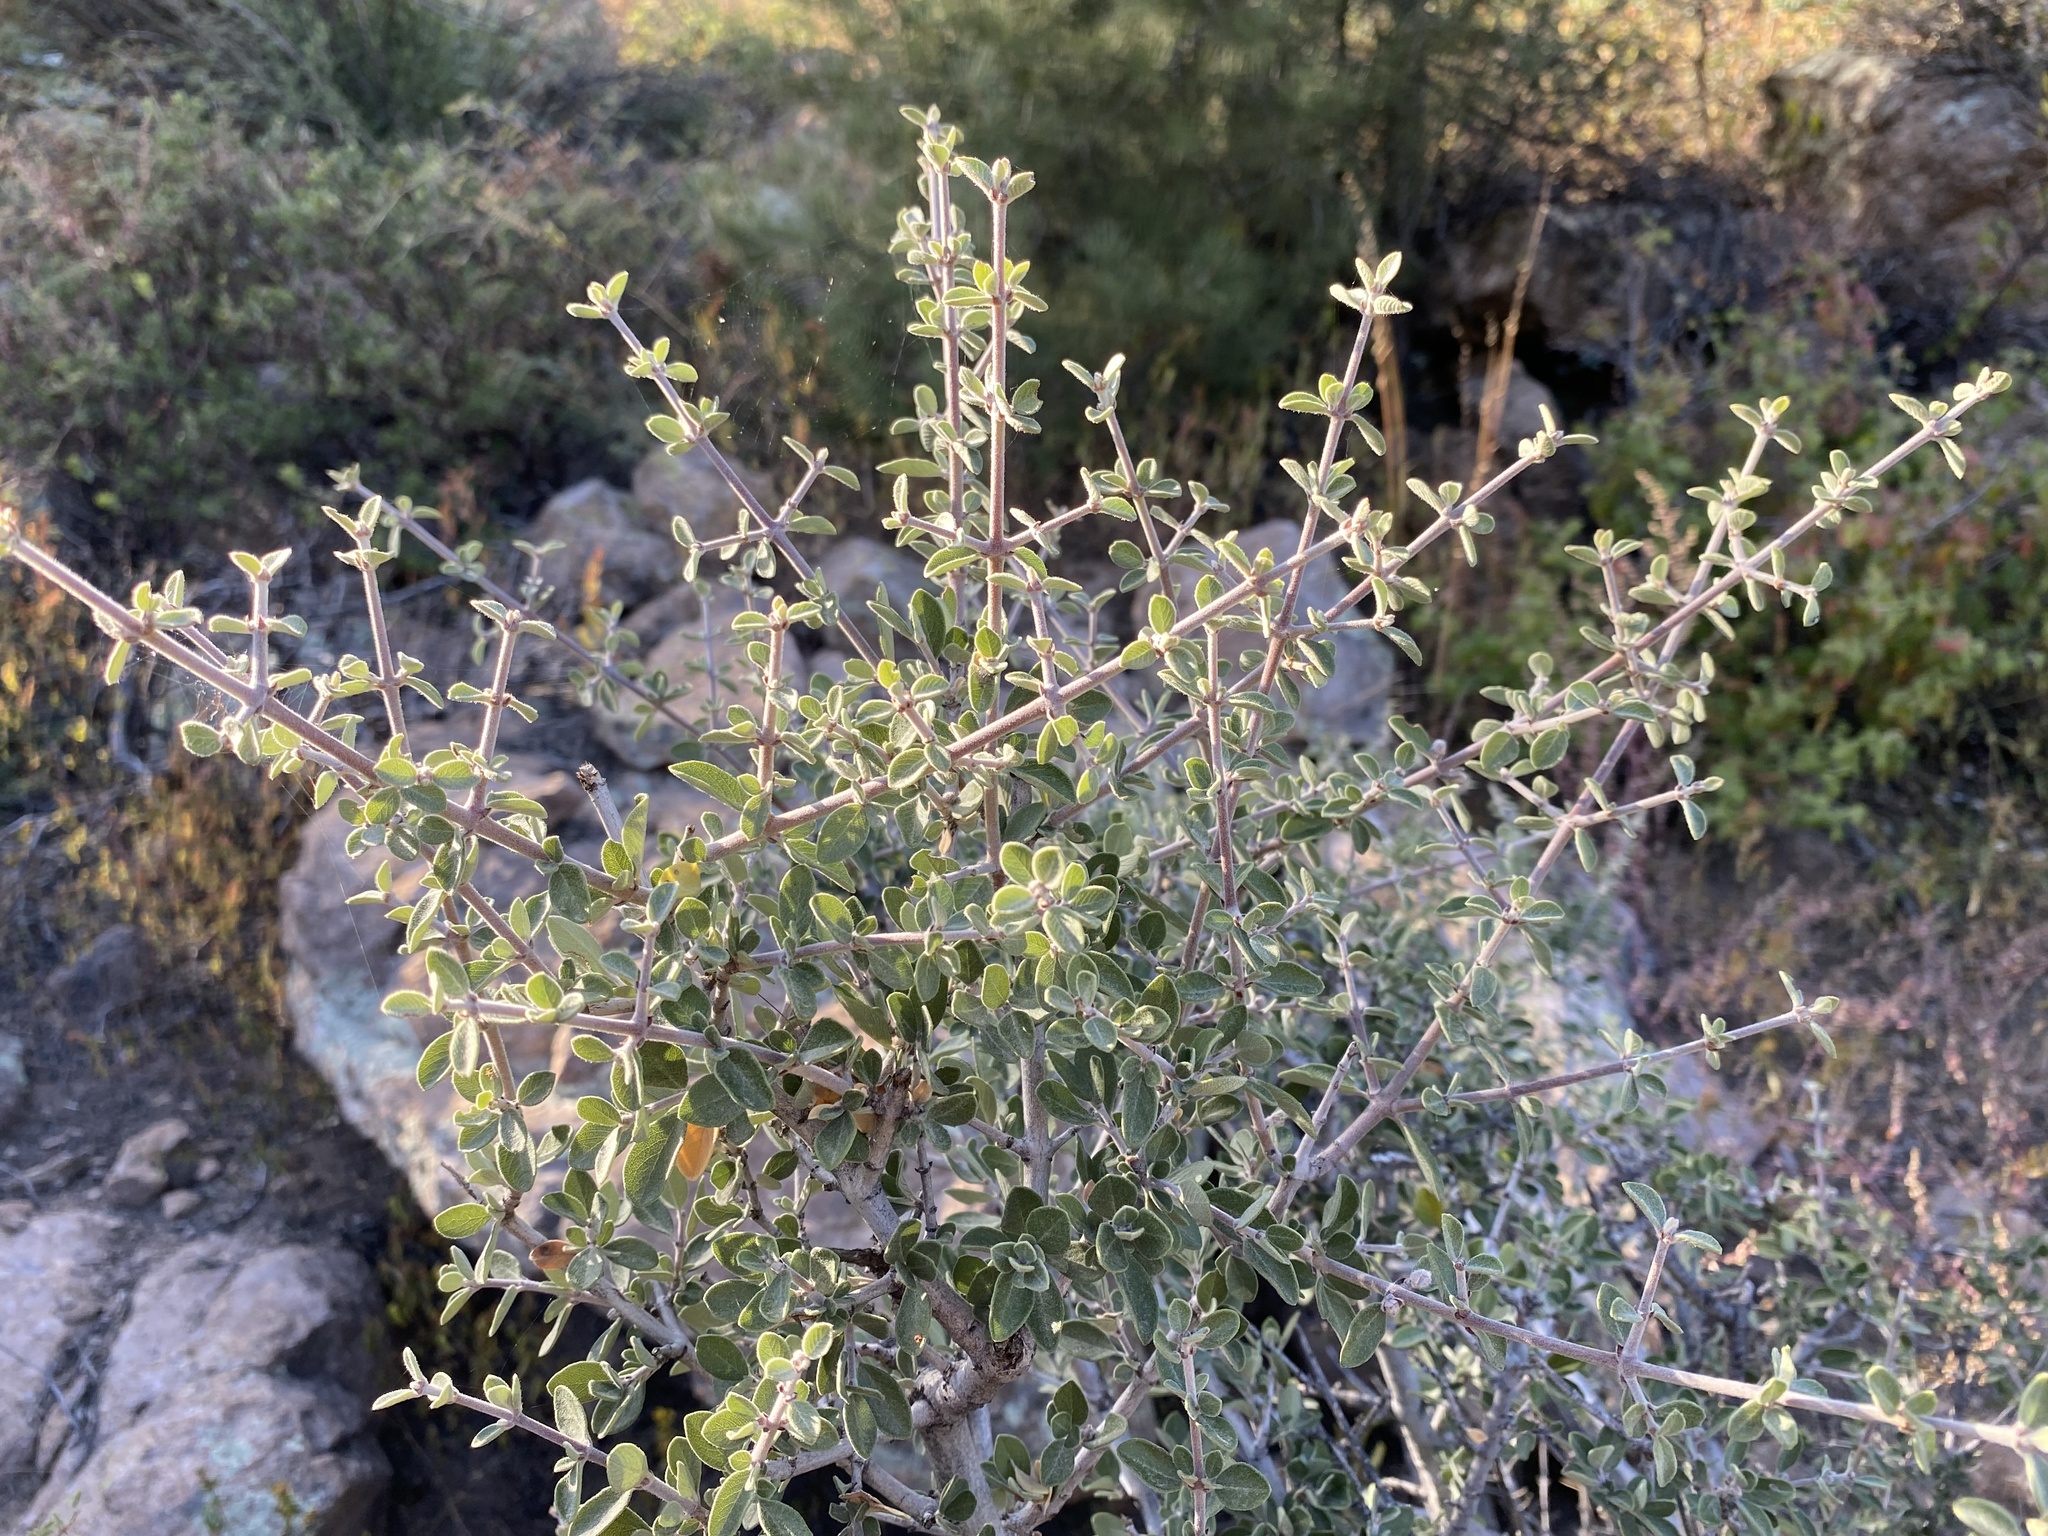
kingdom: Plantae
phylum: Tracheophyta
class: Magnoliopsida
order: Rosales
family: Rhamnaceae
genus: Ceanothus
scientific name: Ceanothus pauciflorus
